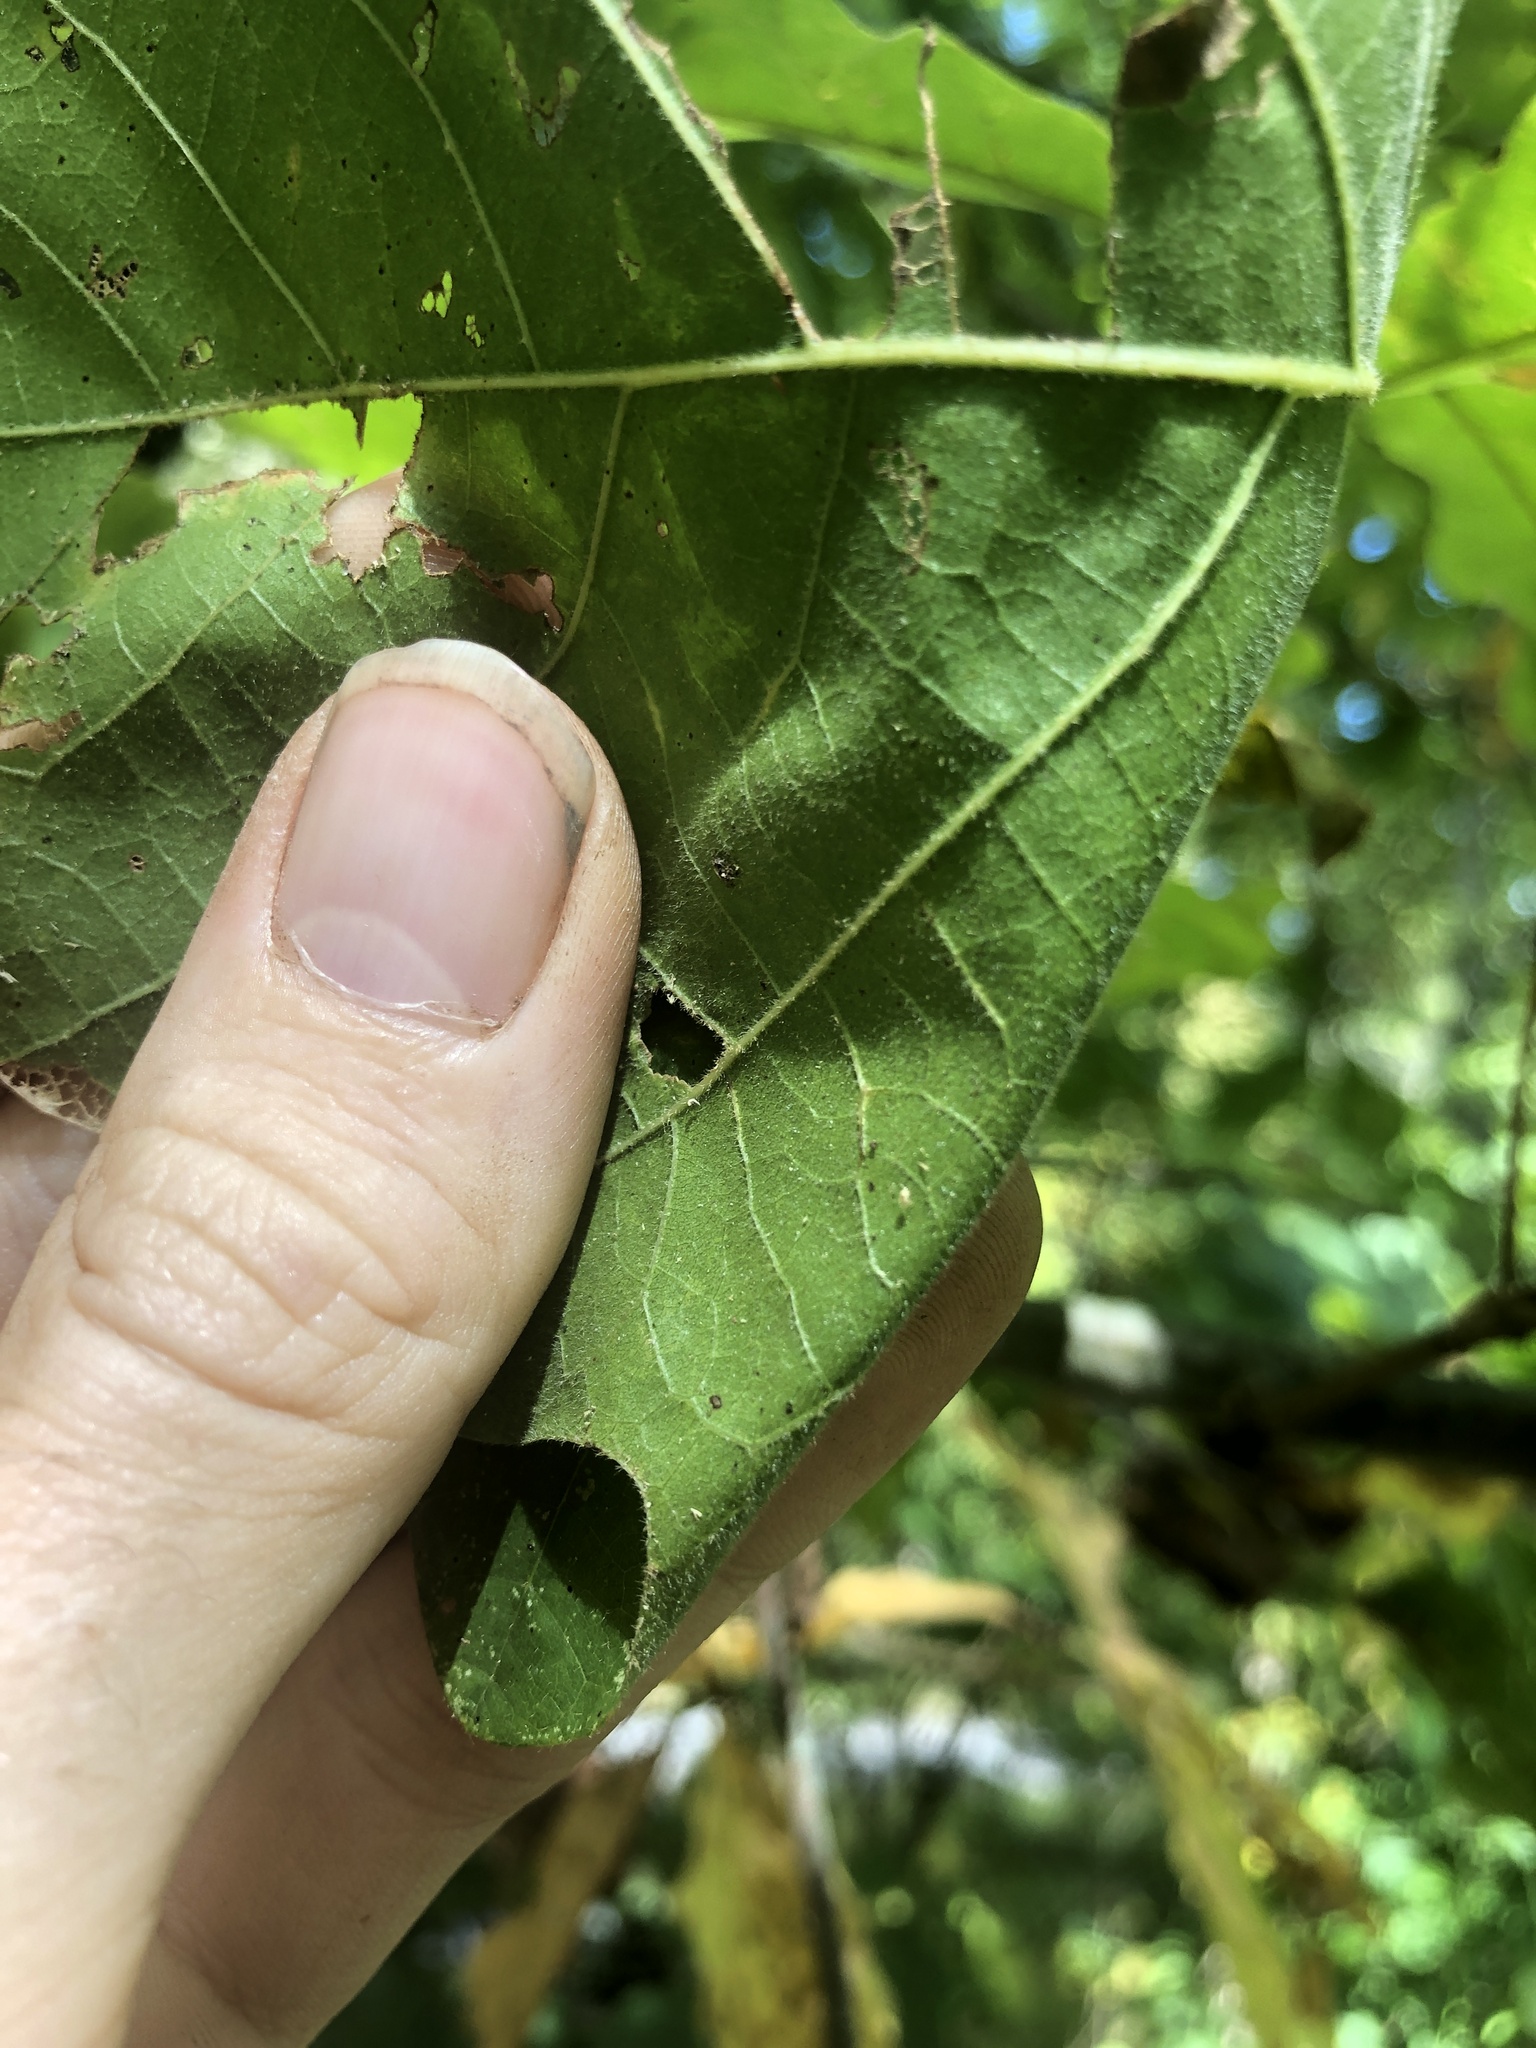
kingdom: Plantae
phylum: Tracheophyta
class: Magnoliopsida
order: Fagales
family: Fagaceae
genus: Quercus
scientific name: Quercus bicolor
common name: Swamp white oak
